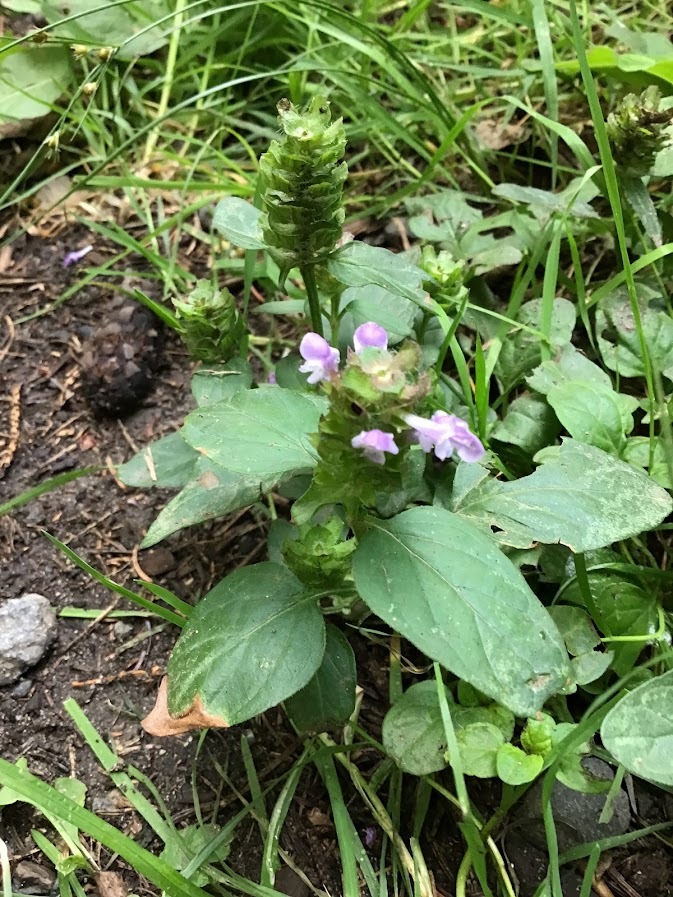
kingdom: Plantae
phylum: Tracheophyta
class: Magnoliopsida
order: Lamiales
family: Lamiaceae
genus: Prunella
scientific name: Prunella vulgaris
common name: Heal-all
